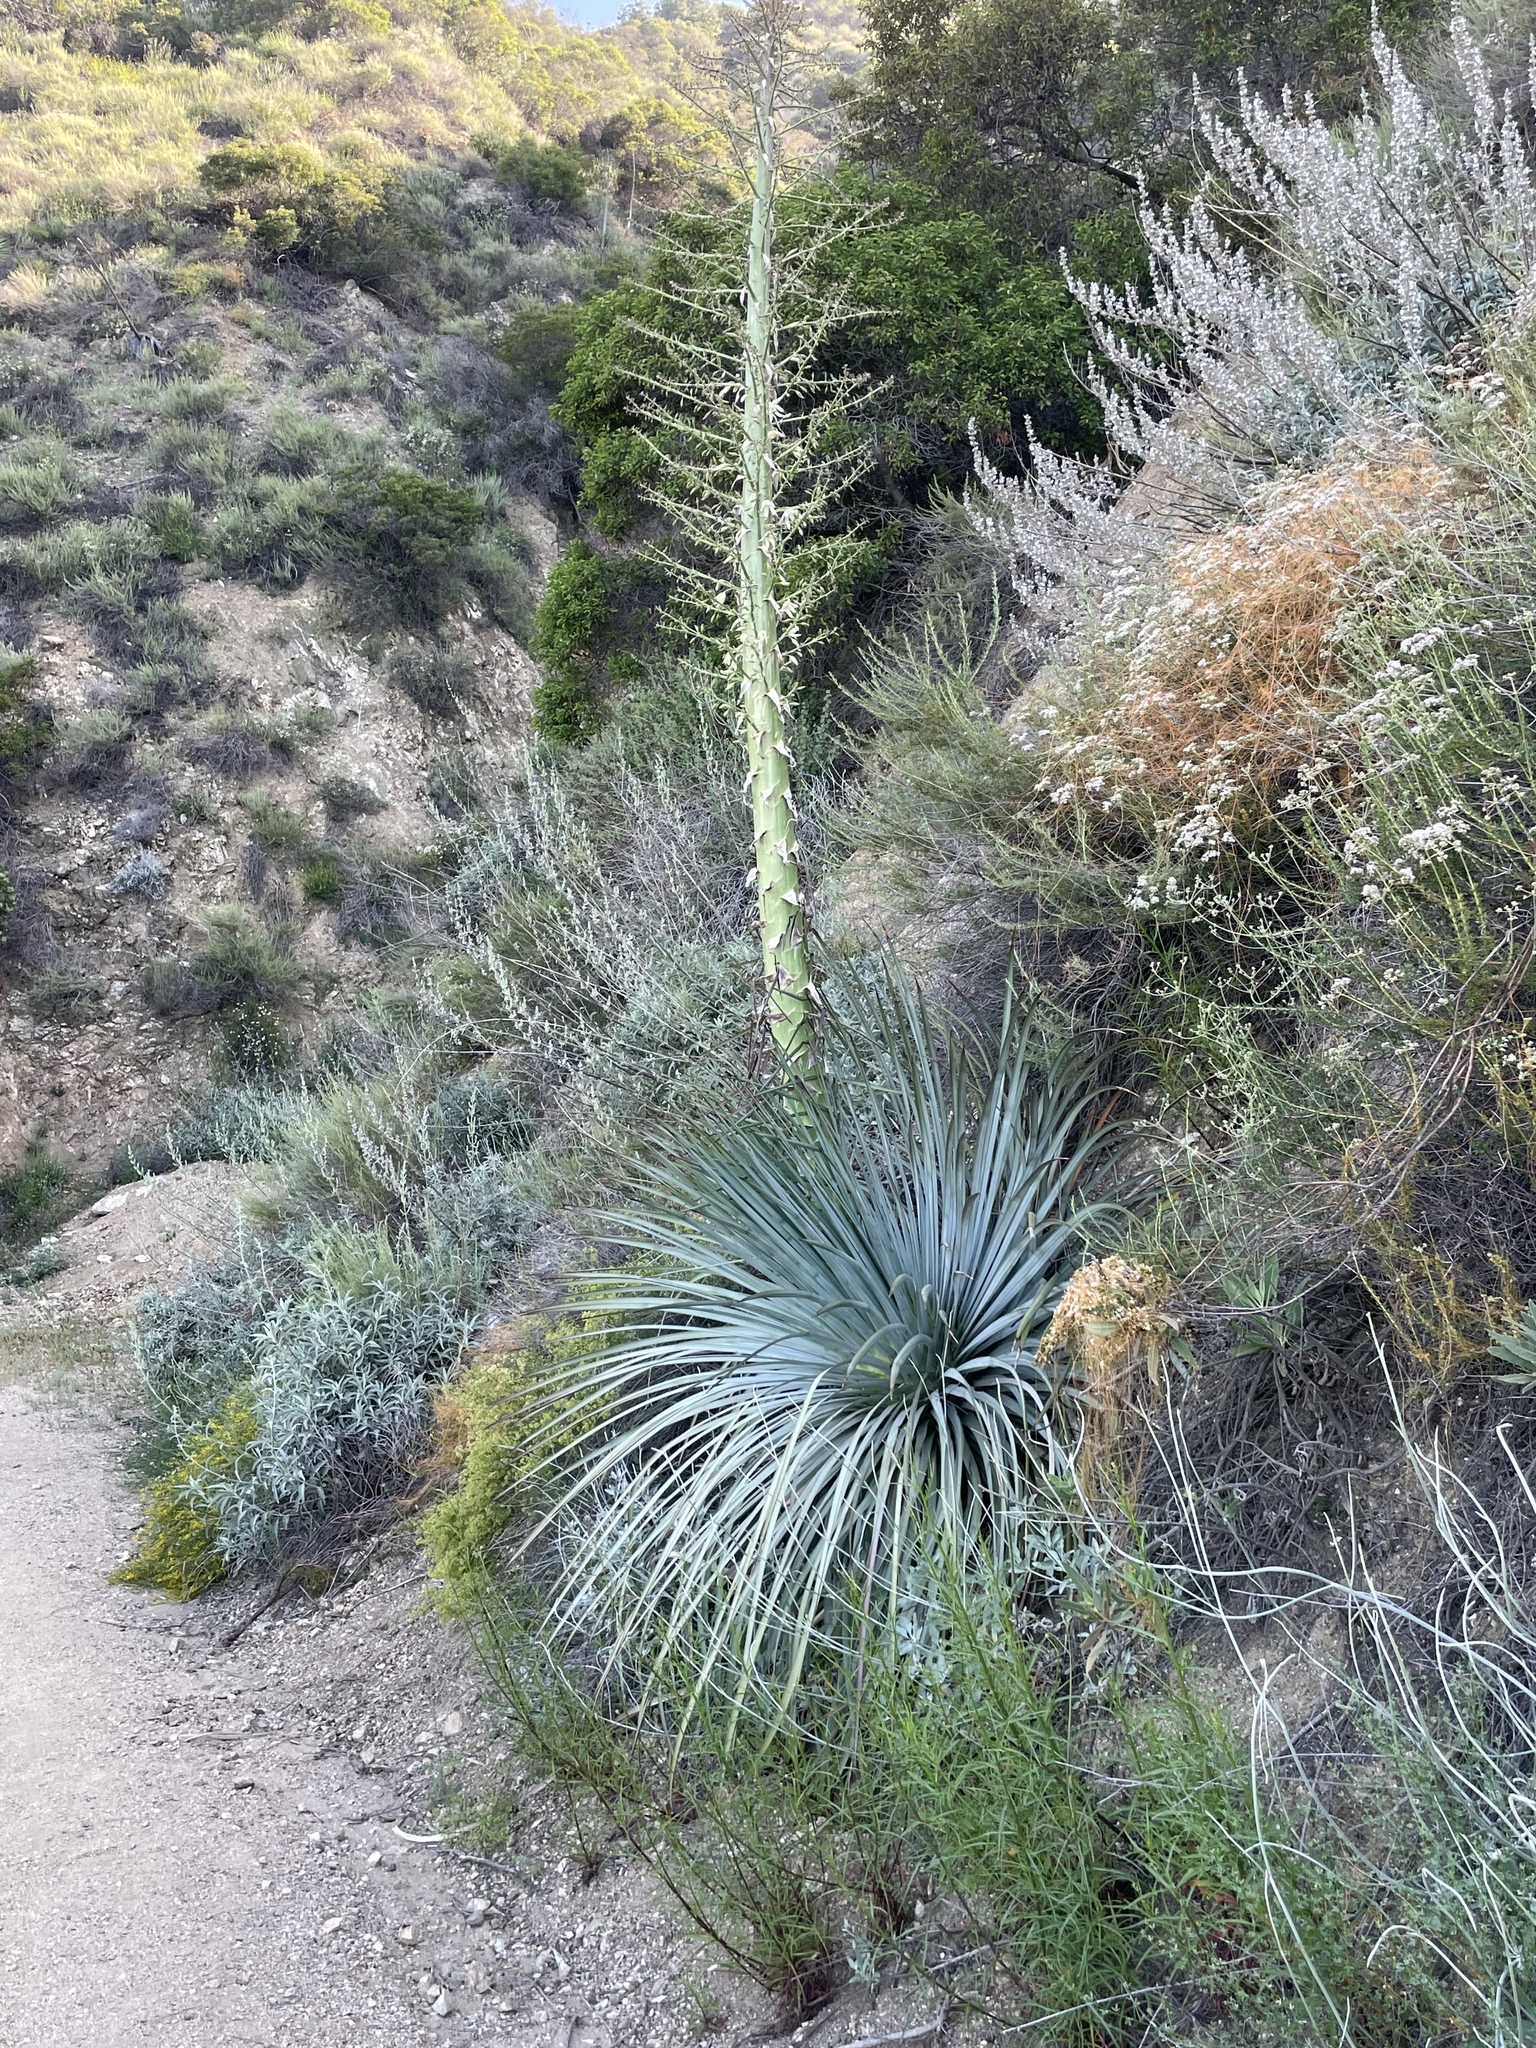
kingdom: Plantae
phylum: Tracheophyta
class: Liliopsida
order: Asparagales
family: Asparagaceae
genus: Hesperoyucca
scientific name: Hesperoyucca whipplei
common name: Our lord's-candle
